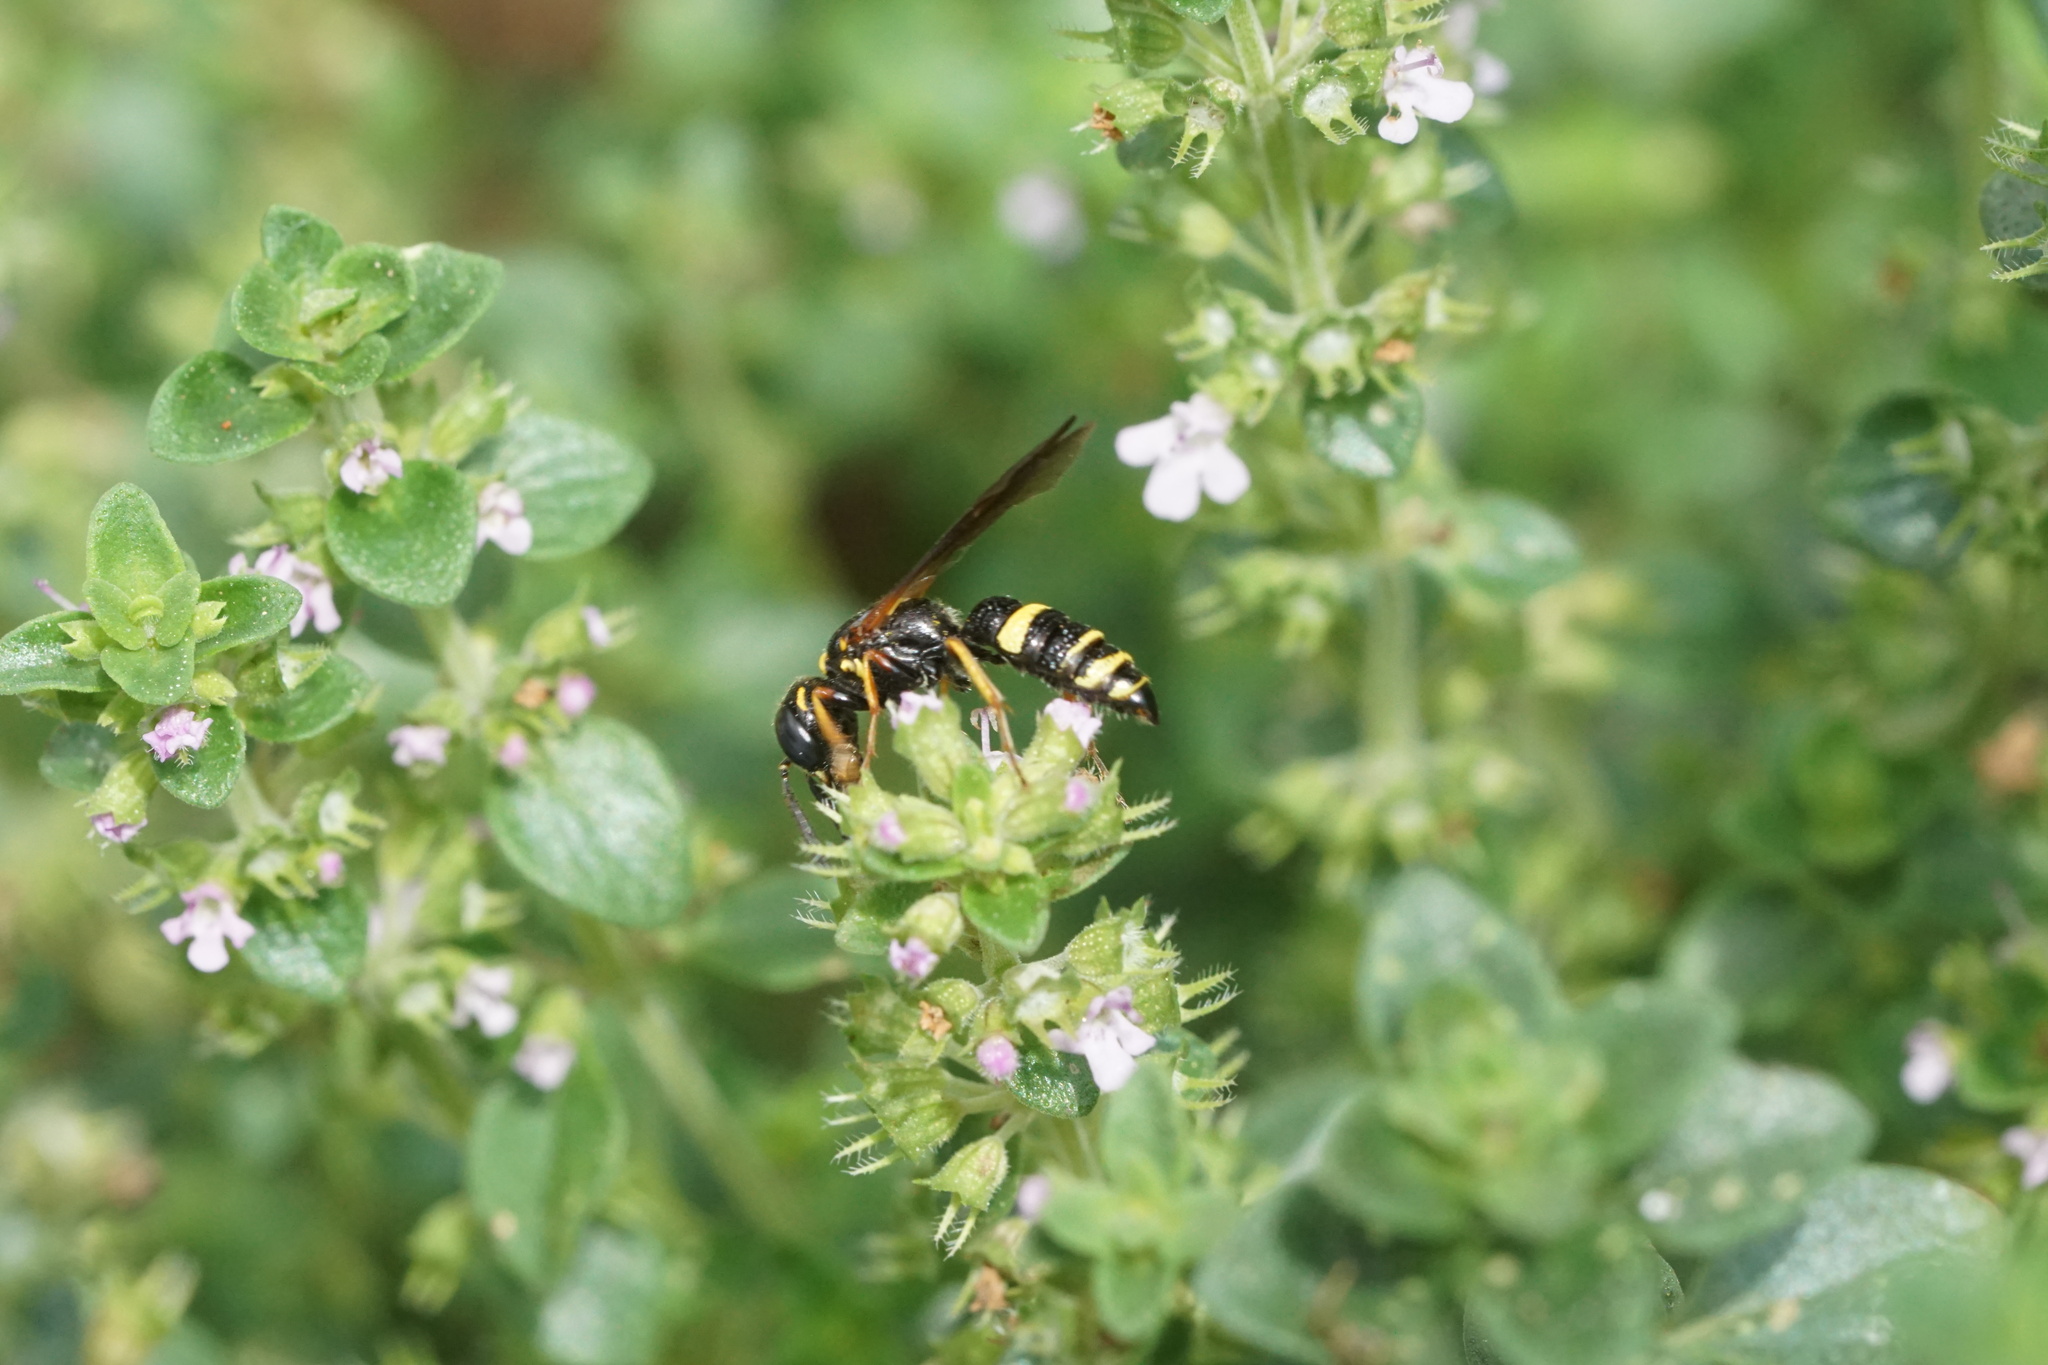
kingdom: Animalia
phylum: Arthropoda
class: Insecta
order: Hymenoptera
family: Crabronidae
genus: Philanthus
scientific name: Philanthus gibbosus
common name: Humped beewolf
